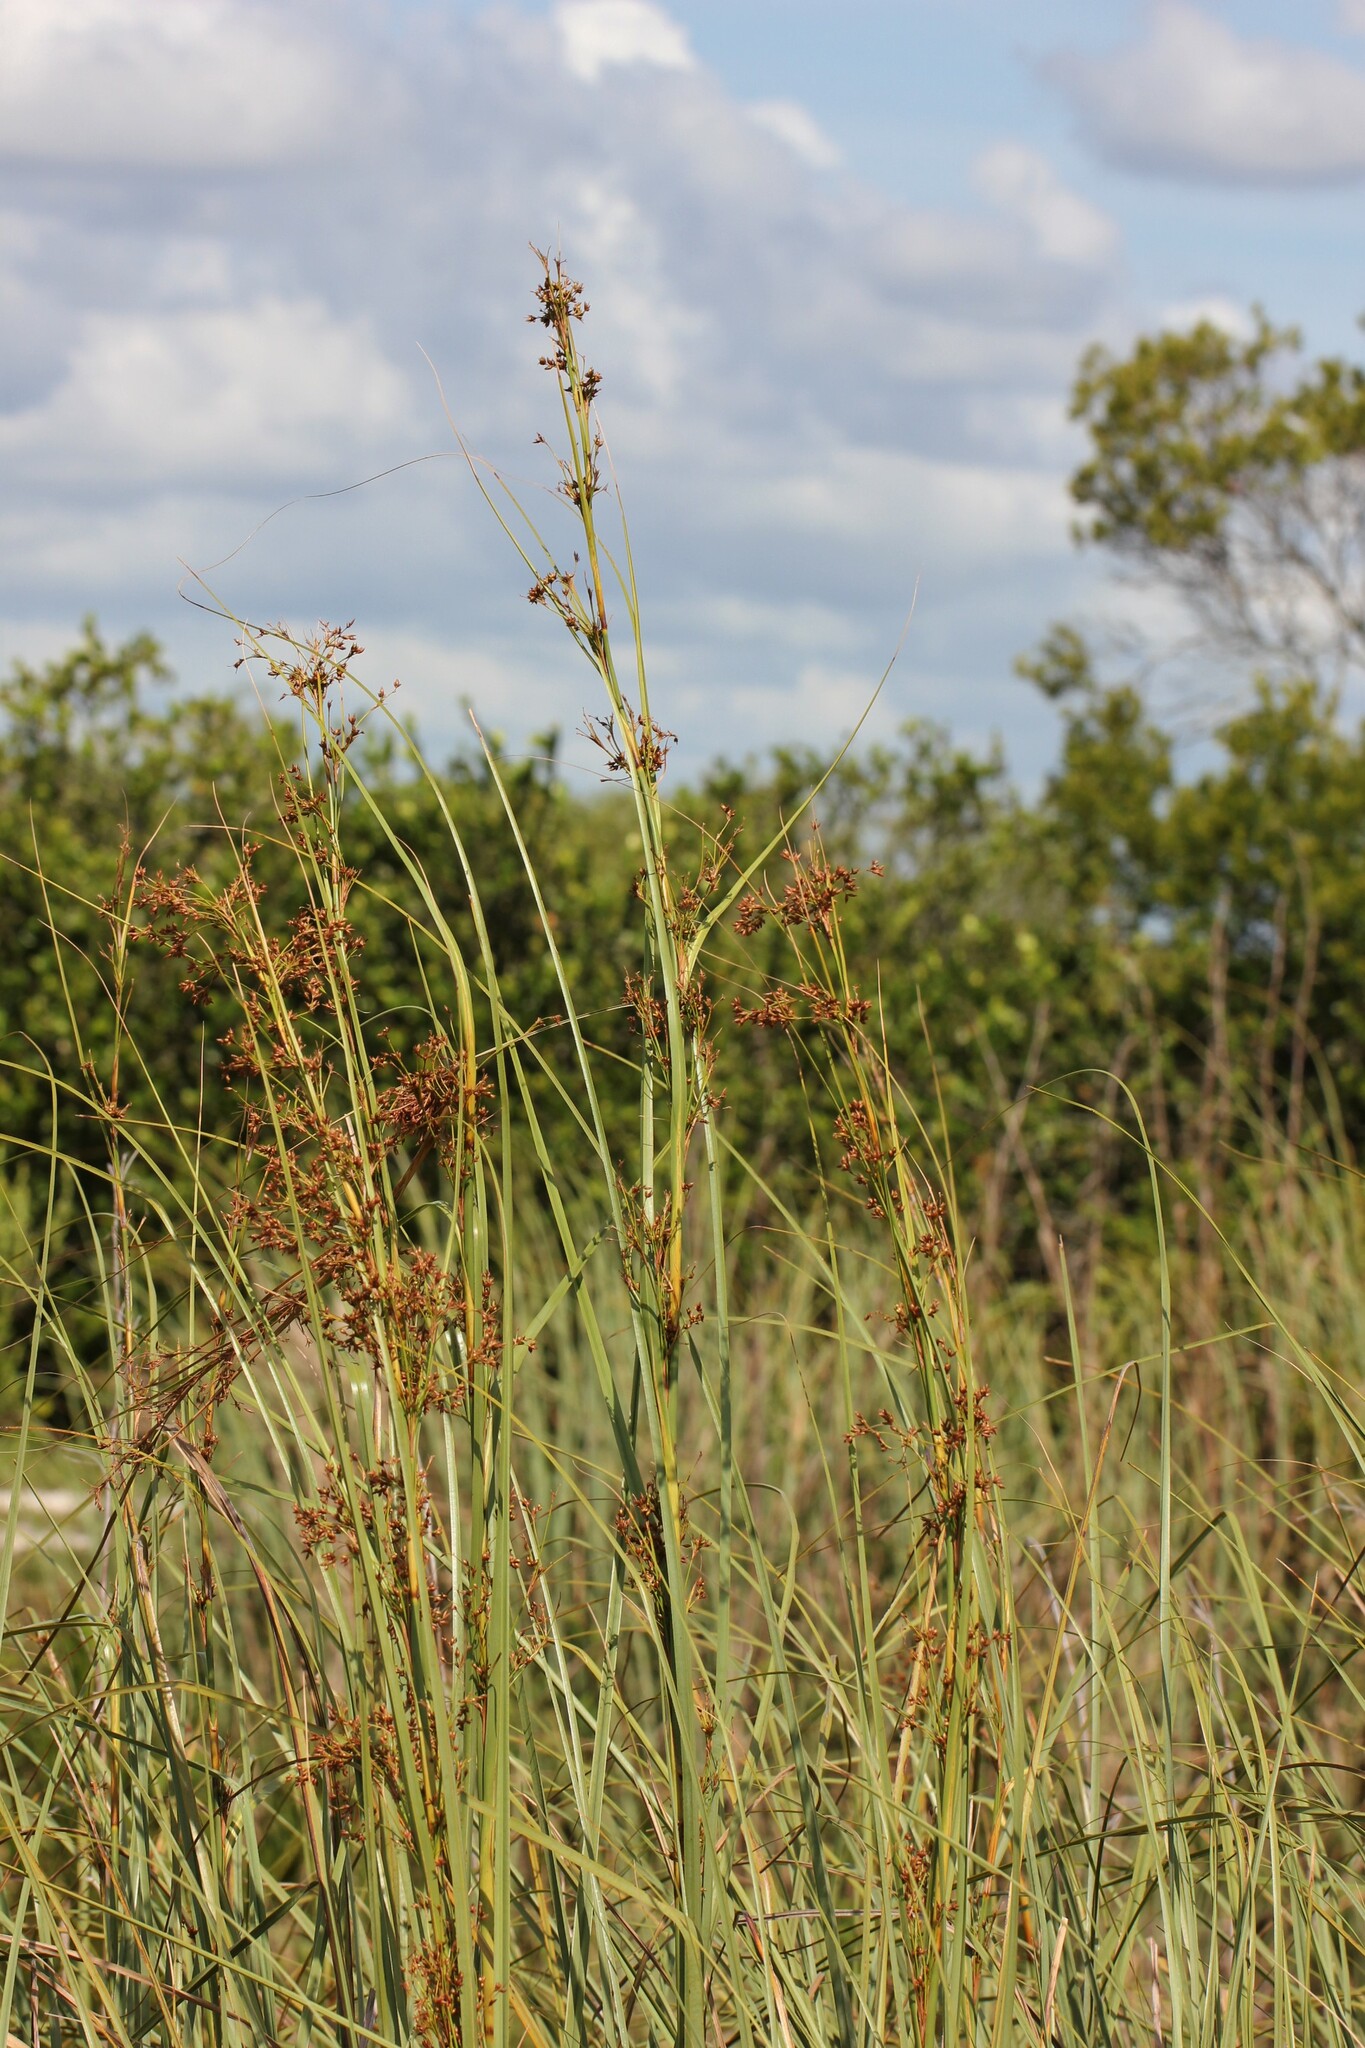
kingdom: Plantae
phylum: Tracheophyta
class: Liliopsida
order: Poales
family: Cyperaceae
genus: Cladium
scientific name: Cladium mariscus
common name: Great fen-sedge
